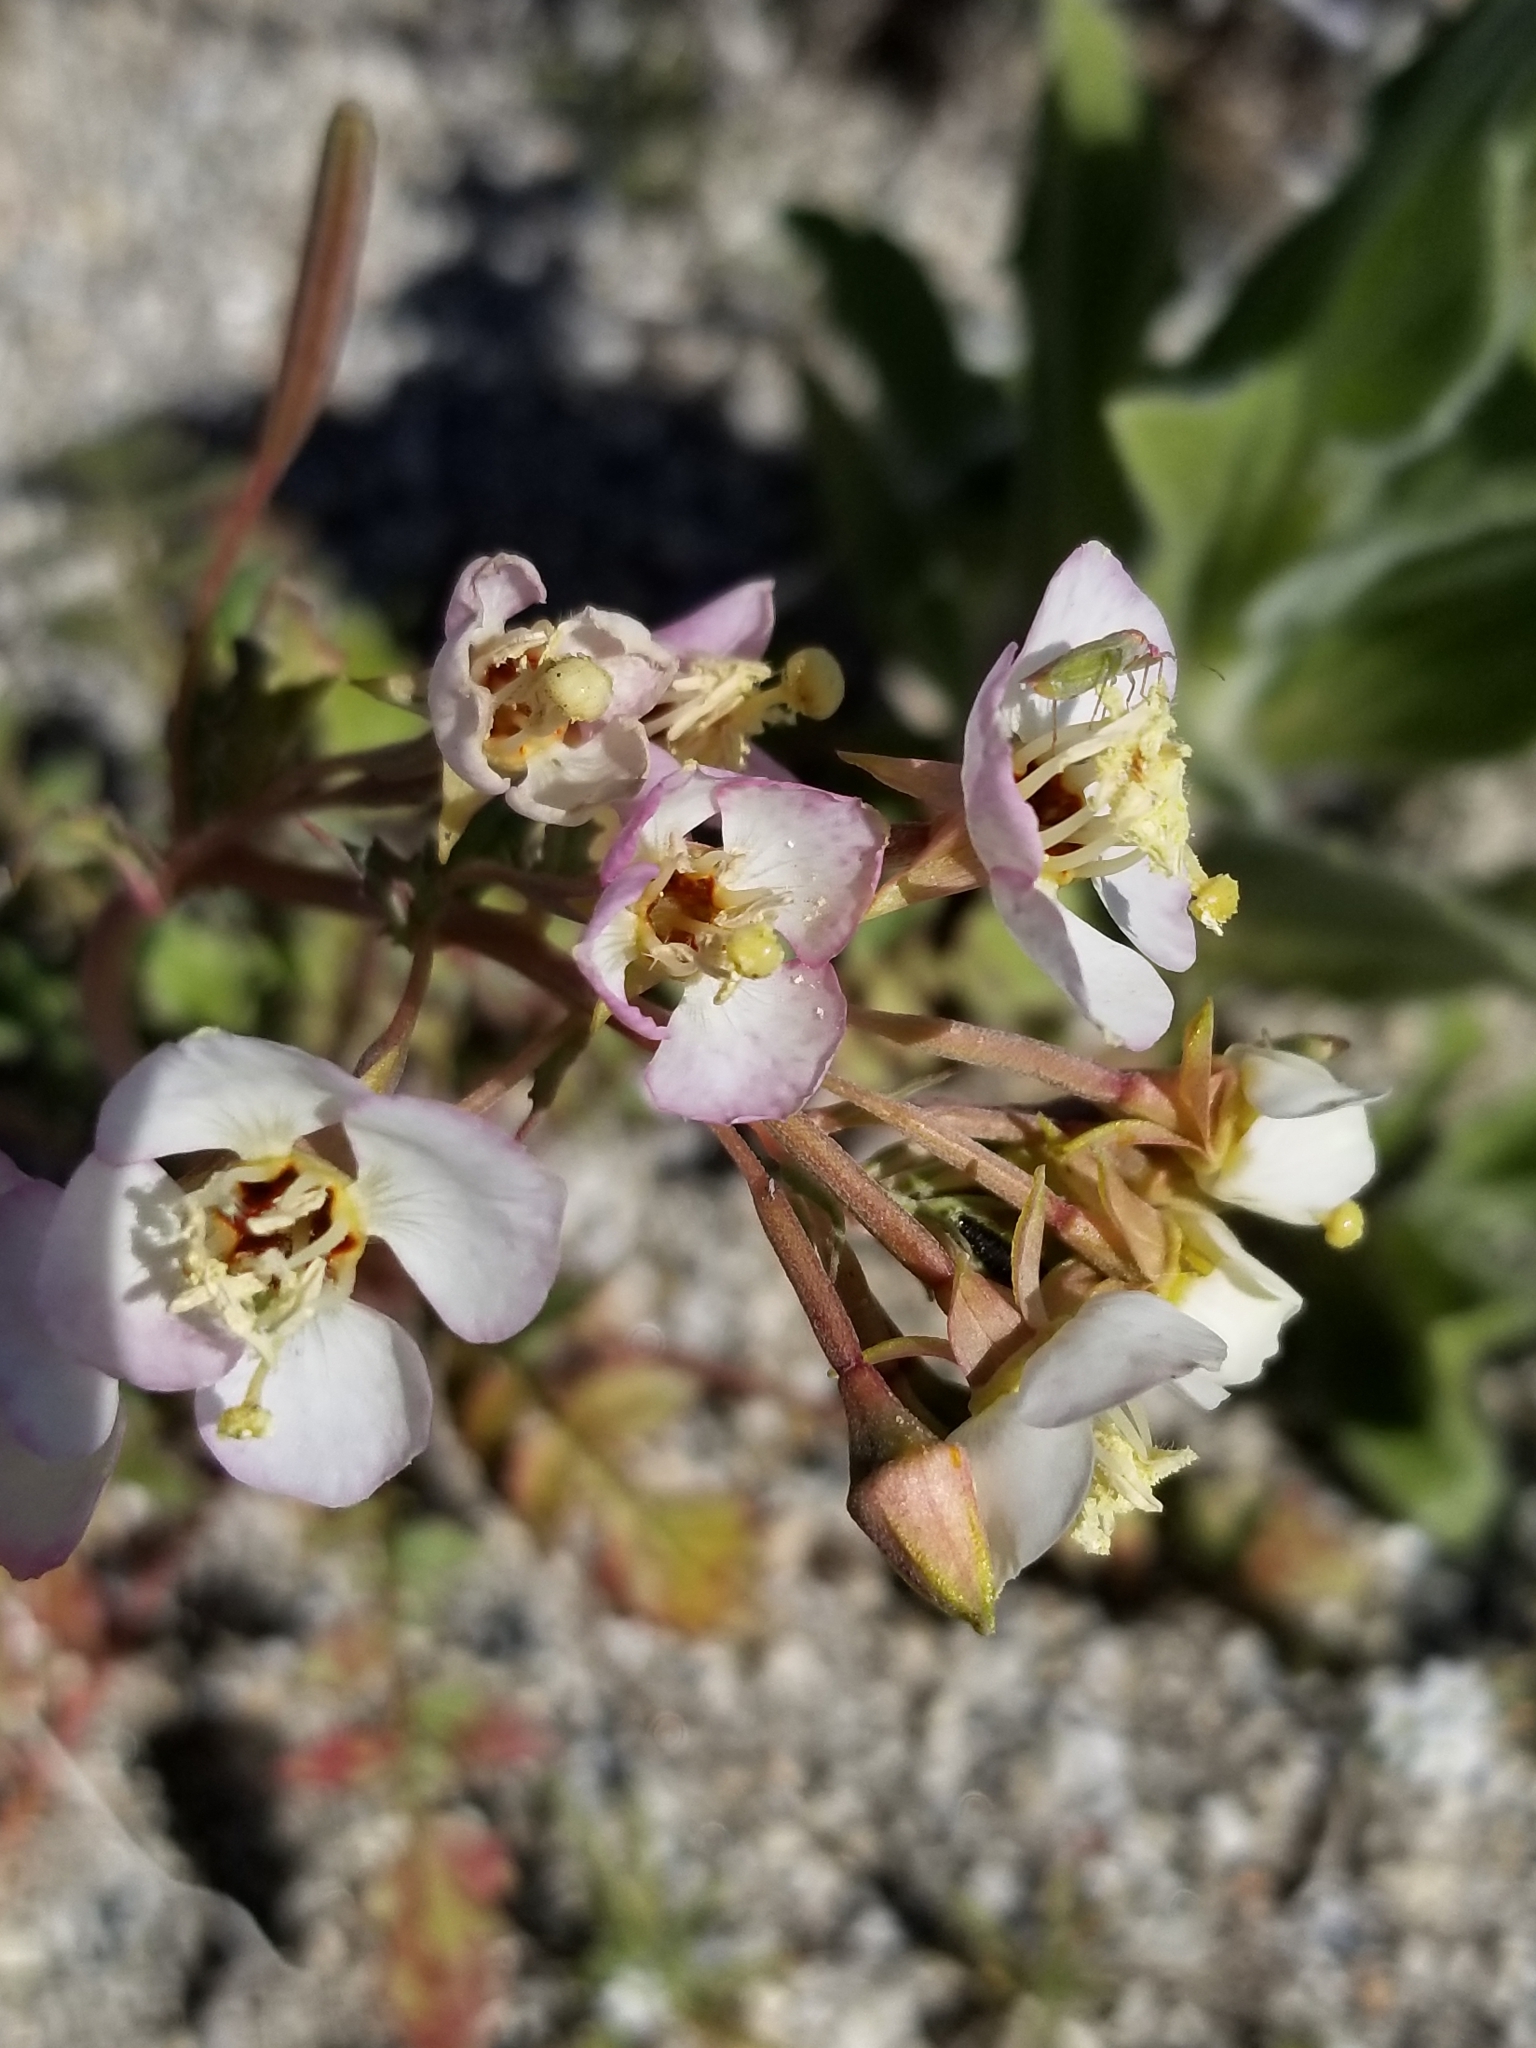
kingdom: Plantae
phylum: Tracheophyta
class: Magnoliopsida
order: Myrtales
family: Onagraceae
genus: Chylismia
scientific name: Chylismia claviformis
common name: Browneyes
